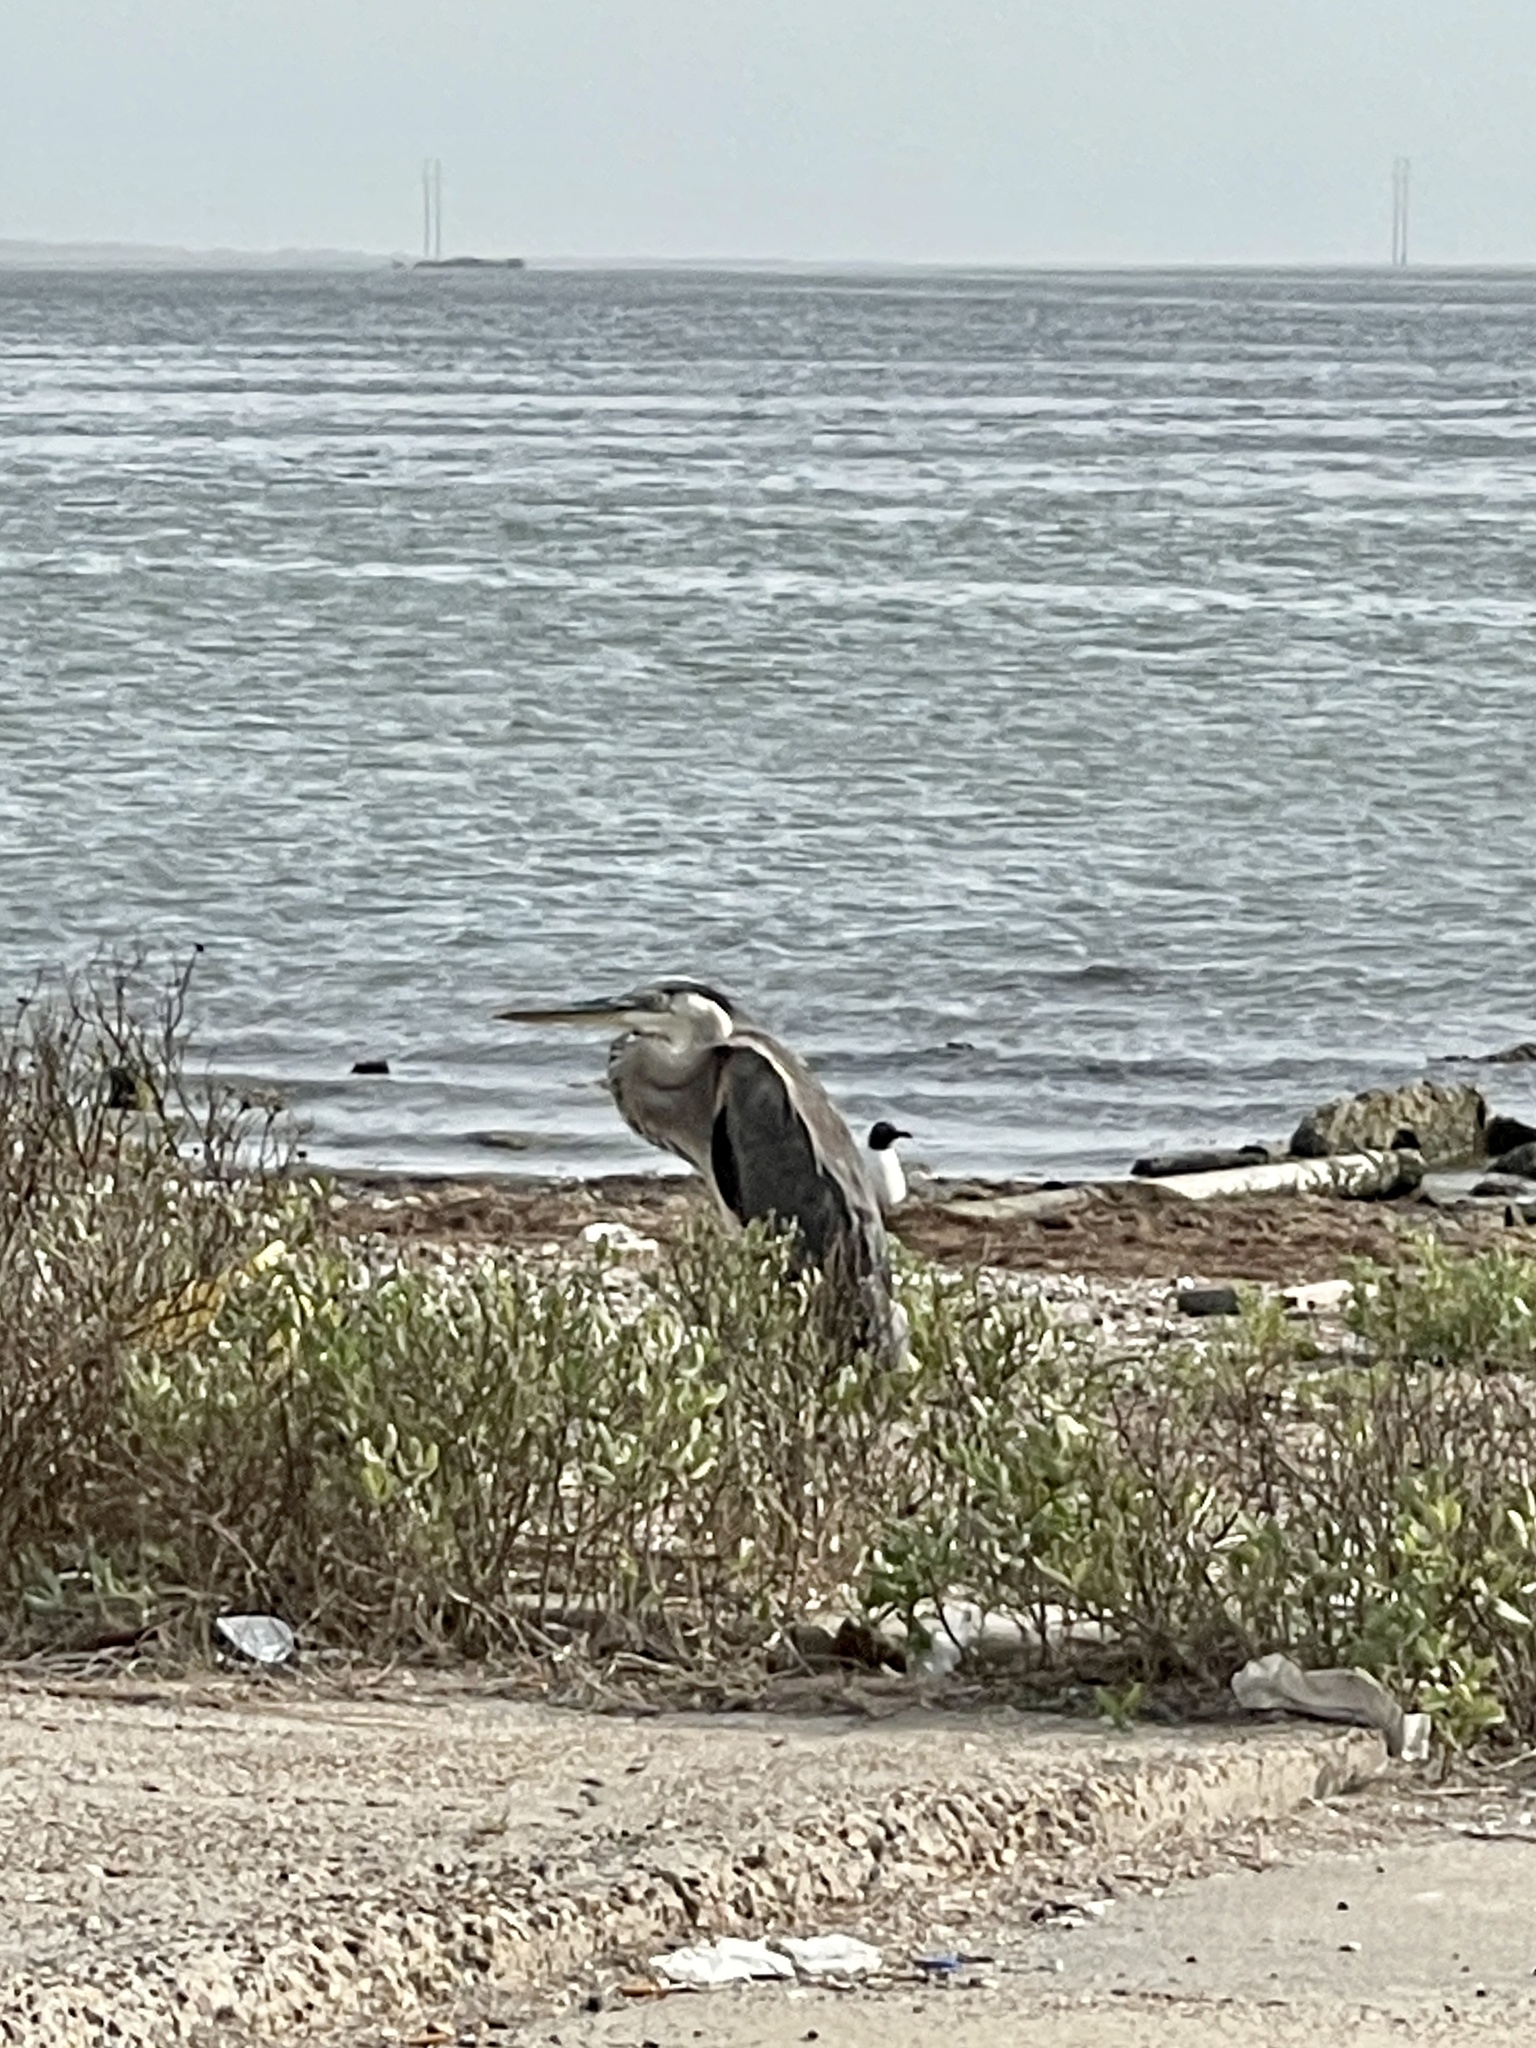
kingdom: Animalia
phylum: Chordata
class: Aves
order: Pelecaniformes
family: Ardeidae
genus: Ardea
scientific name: Ardea herodias
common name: Great blue heron
